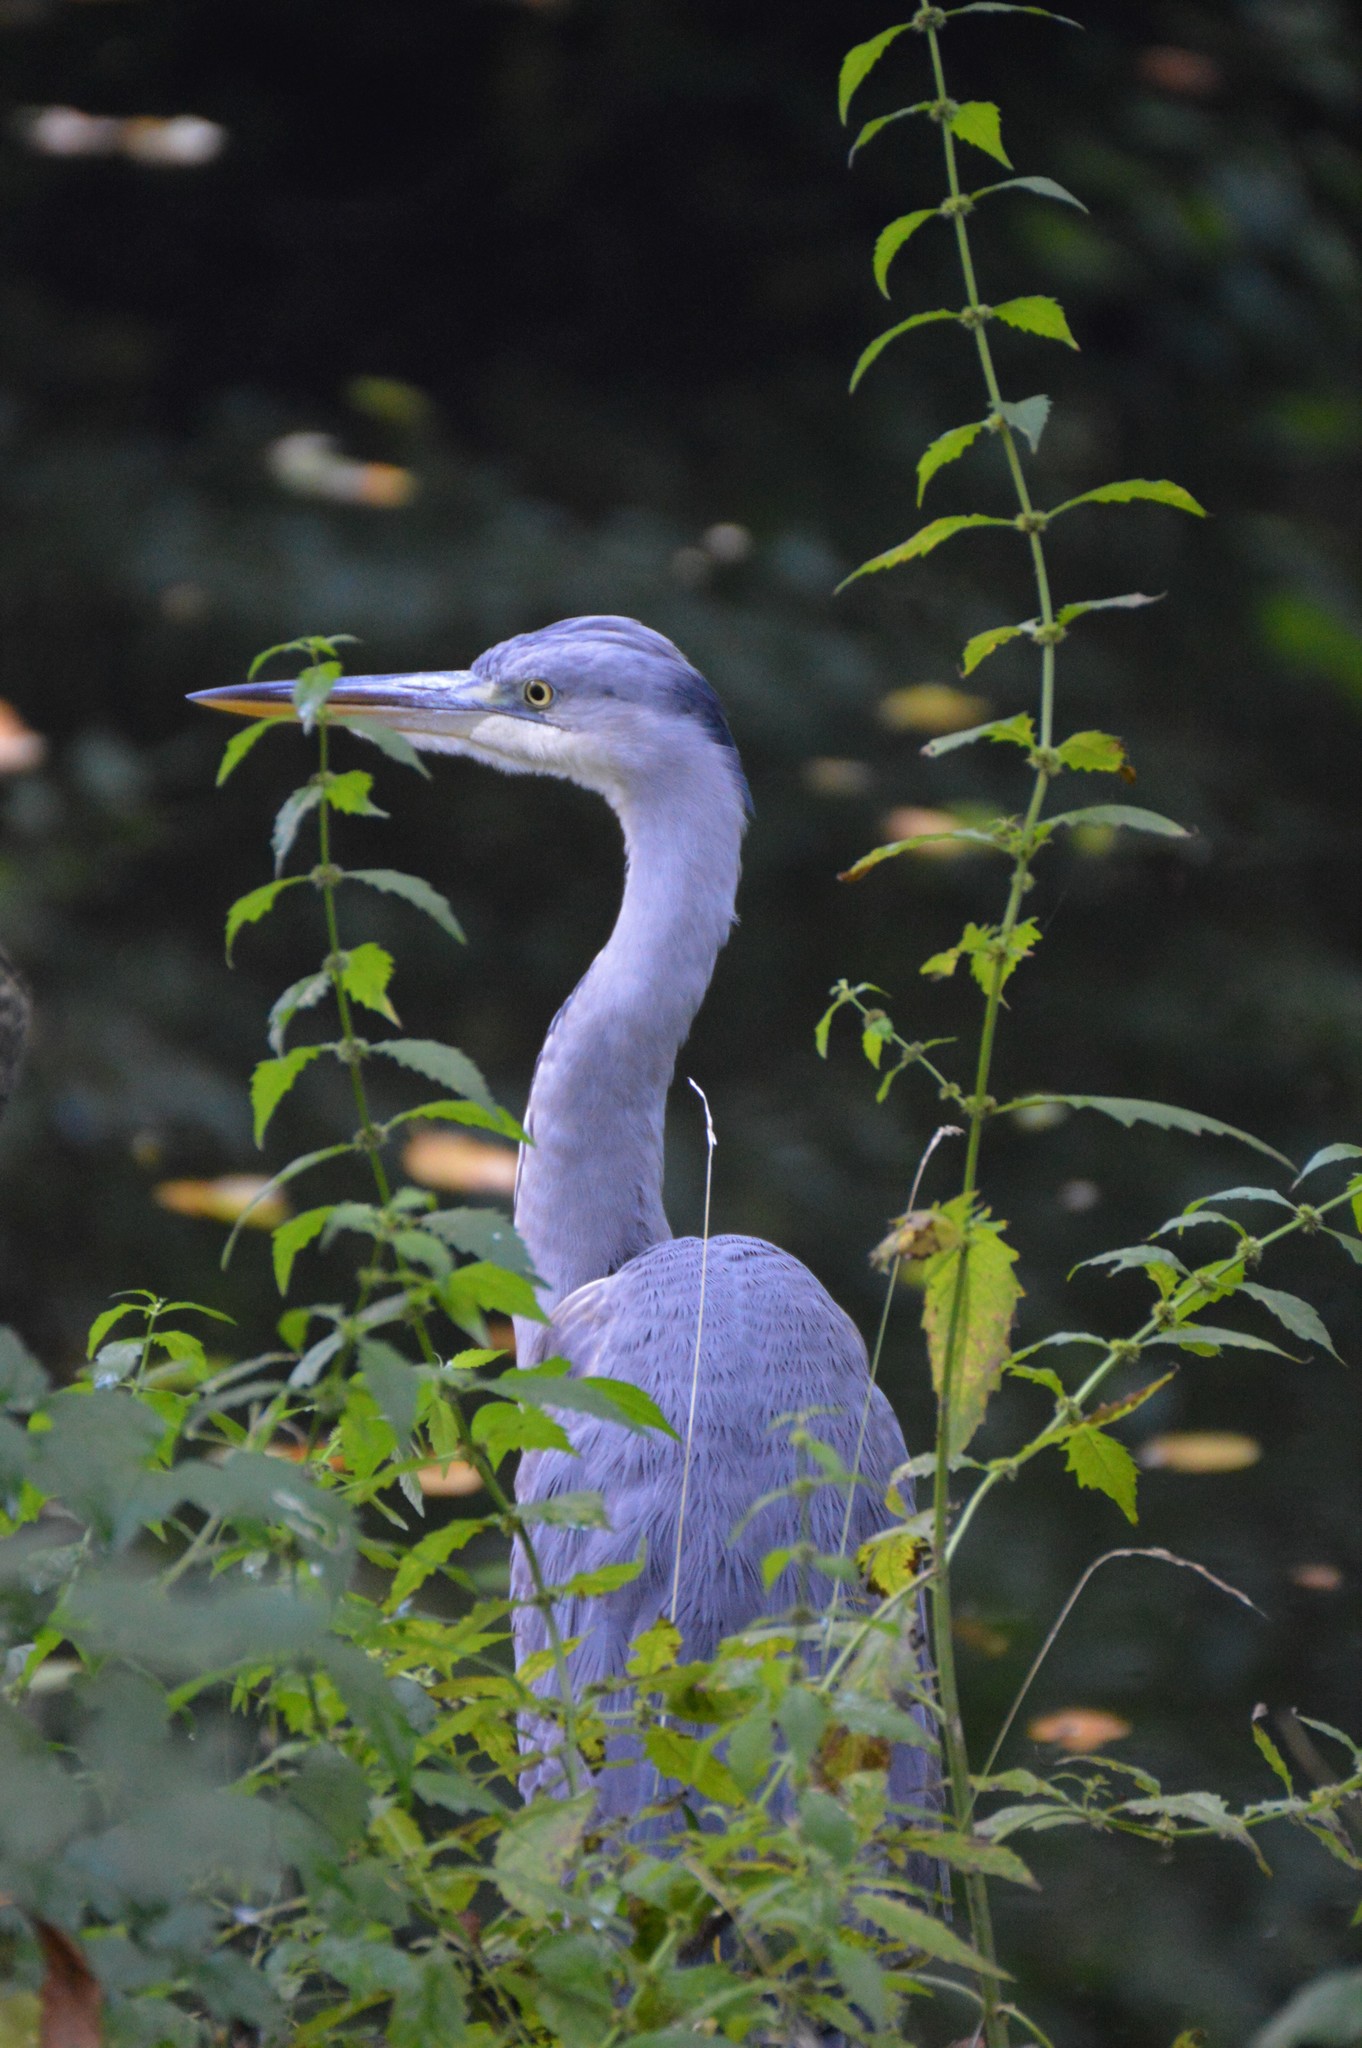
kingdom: Animalia
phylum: Chordata
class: Aves
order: Pelecaniformes
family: Ardeidae
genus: Ardea
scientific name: Ardea cinerea
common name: Grey heron
